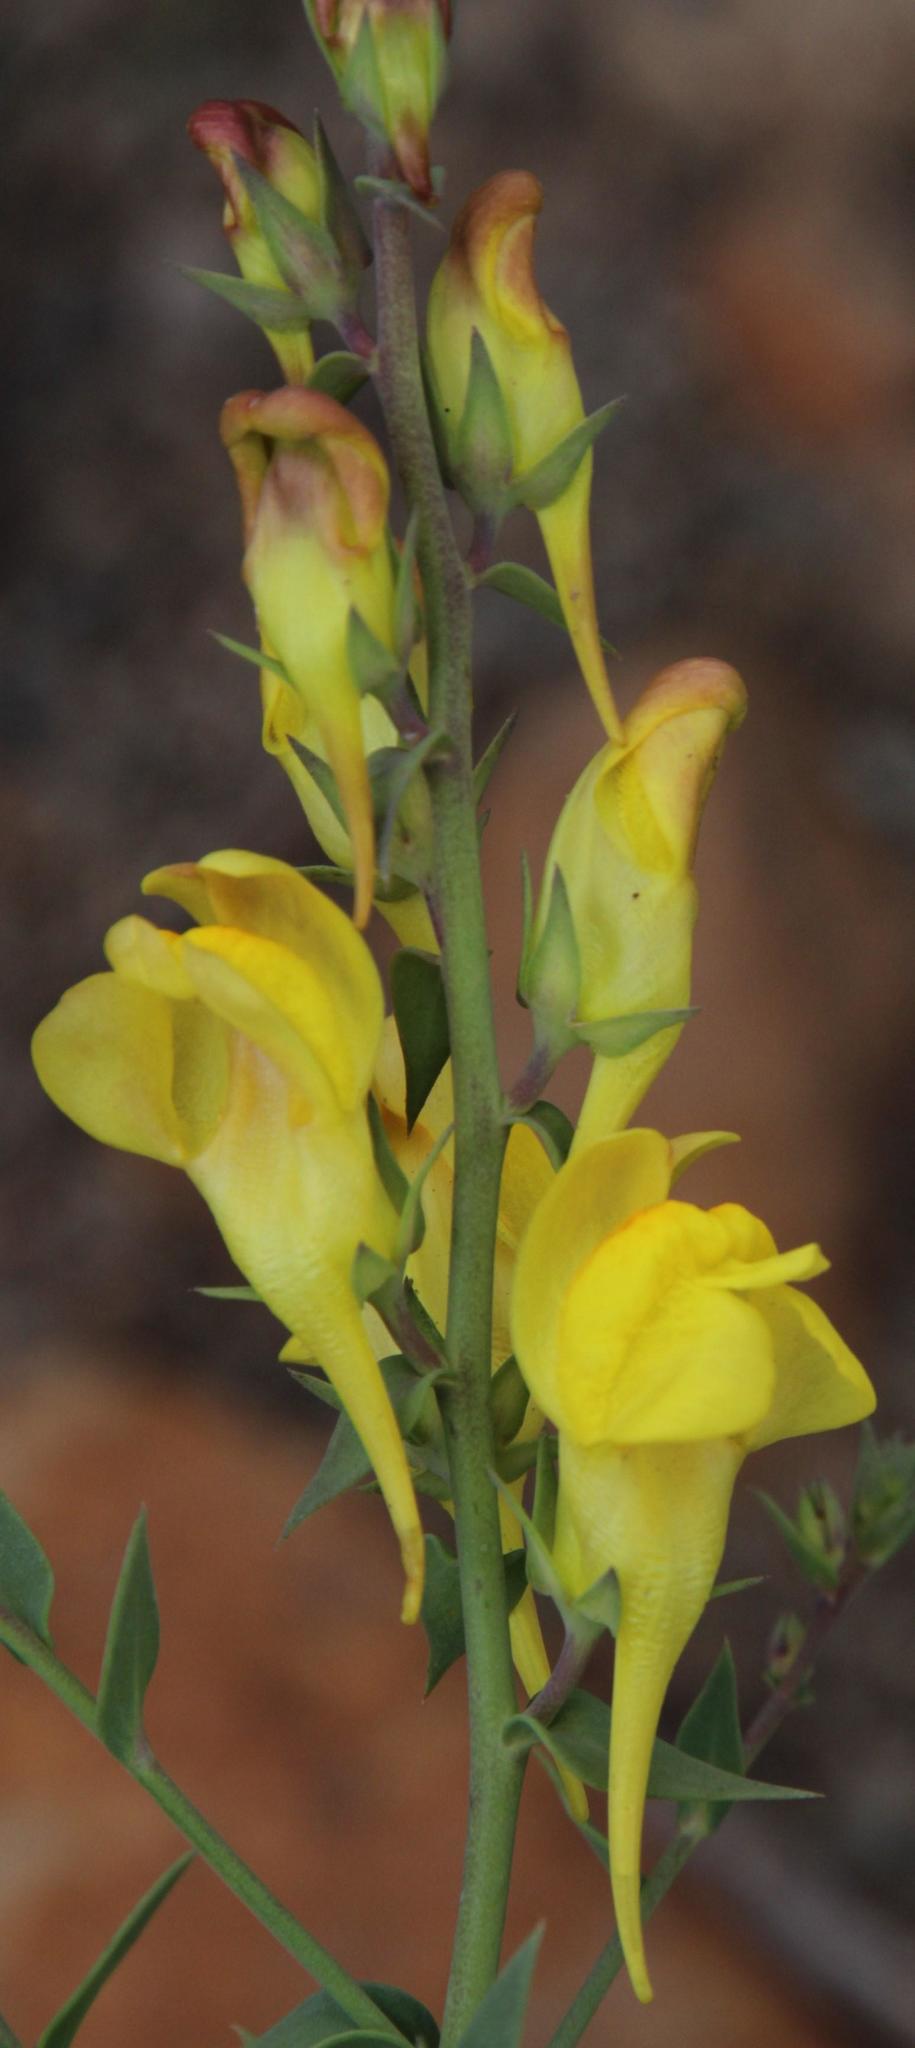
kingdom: Plantae
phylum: Tracheophyta
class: Magnoliopsida
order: Lamiales
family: Plantaginaceae
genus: Linaria
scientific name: Linaria vulgaris
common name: Butter and eggs
